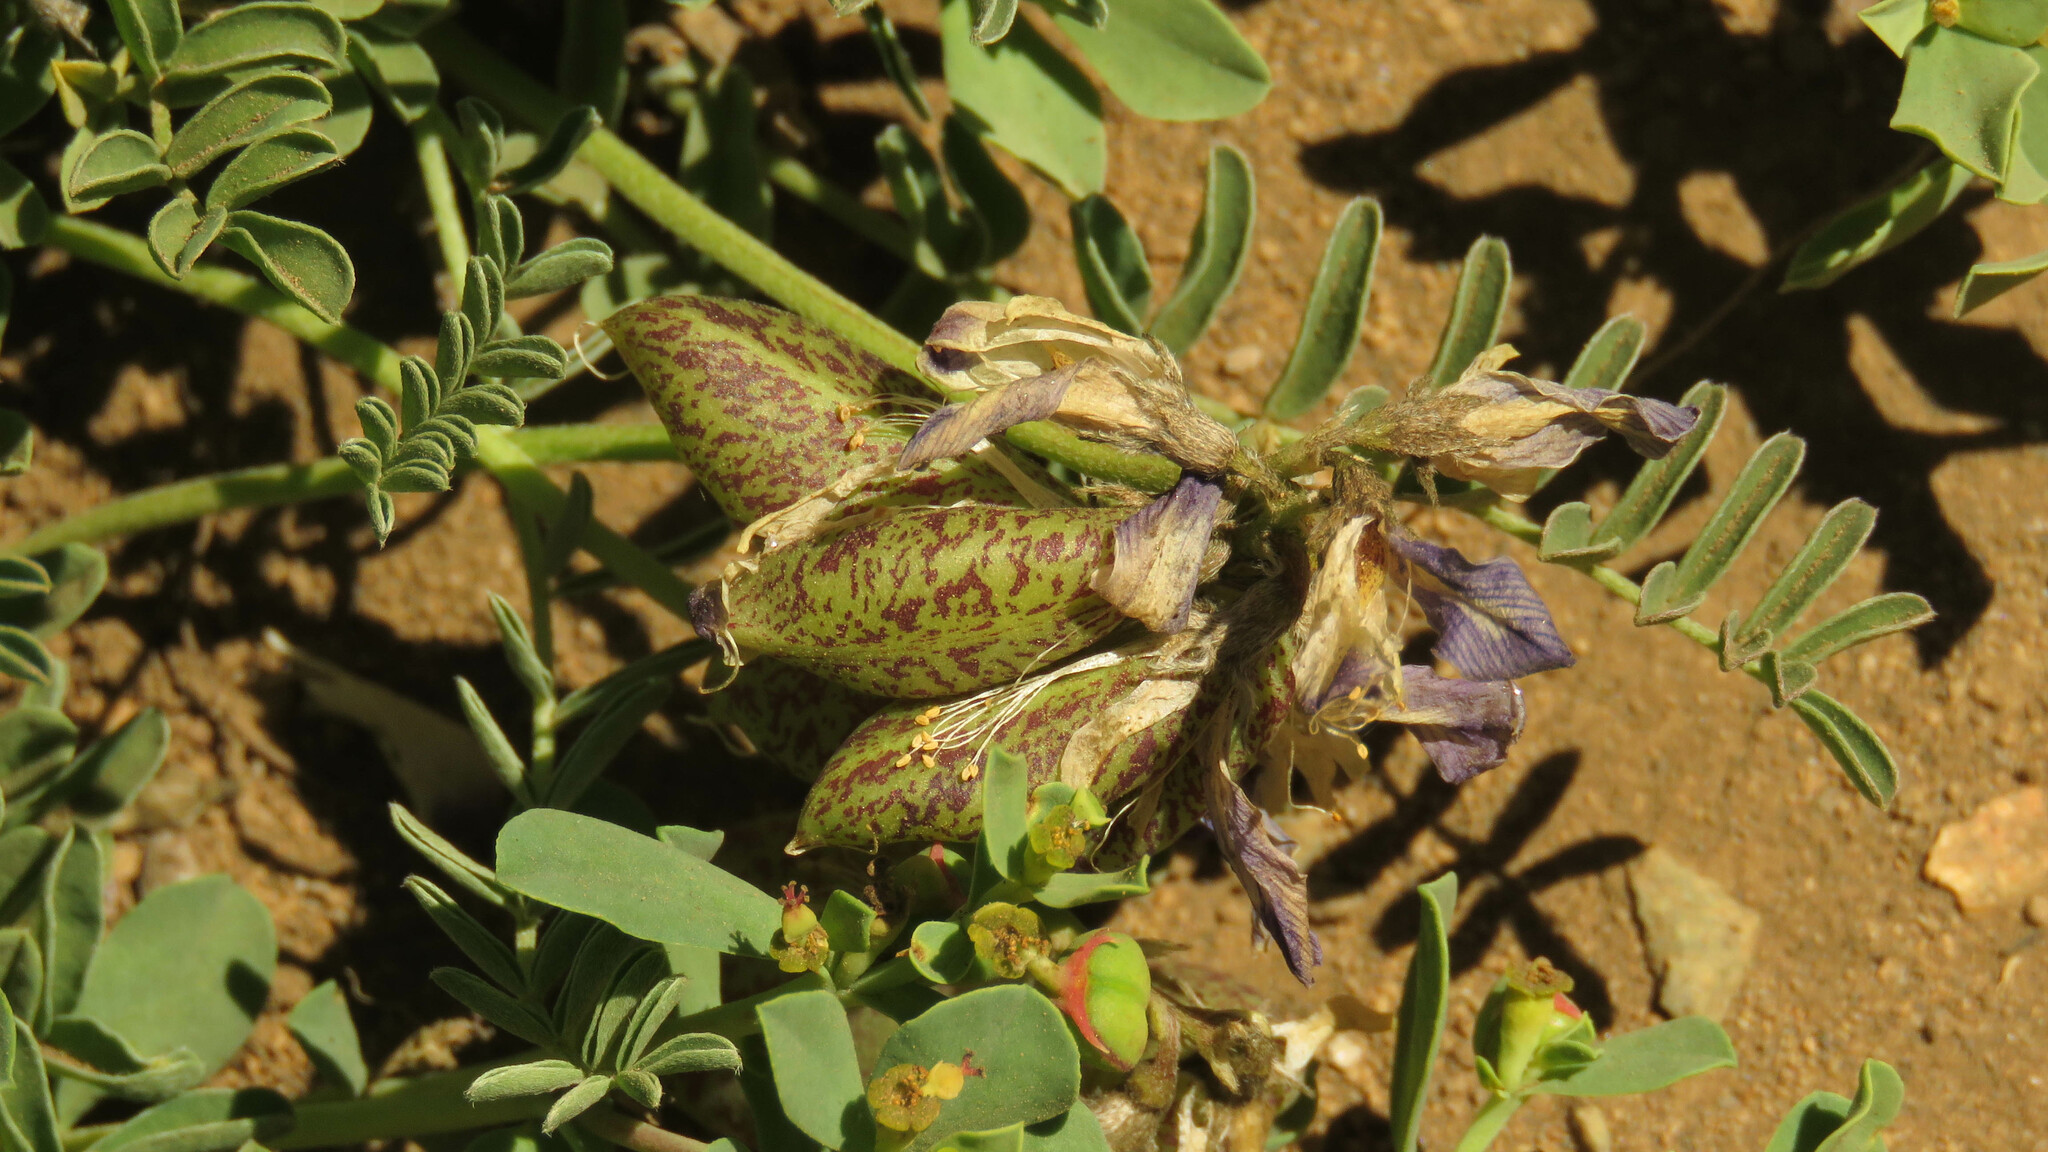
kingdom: Plantae
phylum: Tracheophyta
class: Magnoliopsida
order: Fabales
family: Fabaceae
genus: Astragalus
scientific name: Astragalus palenae
